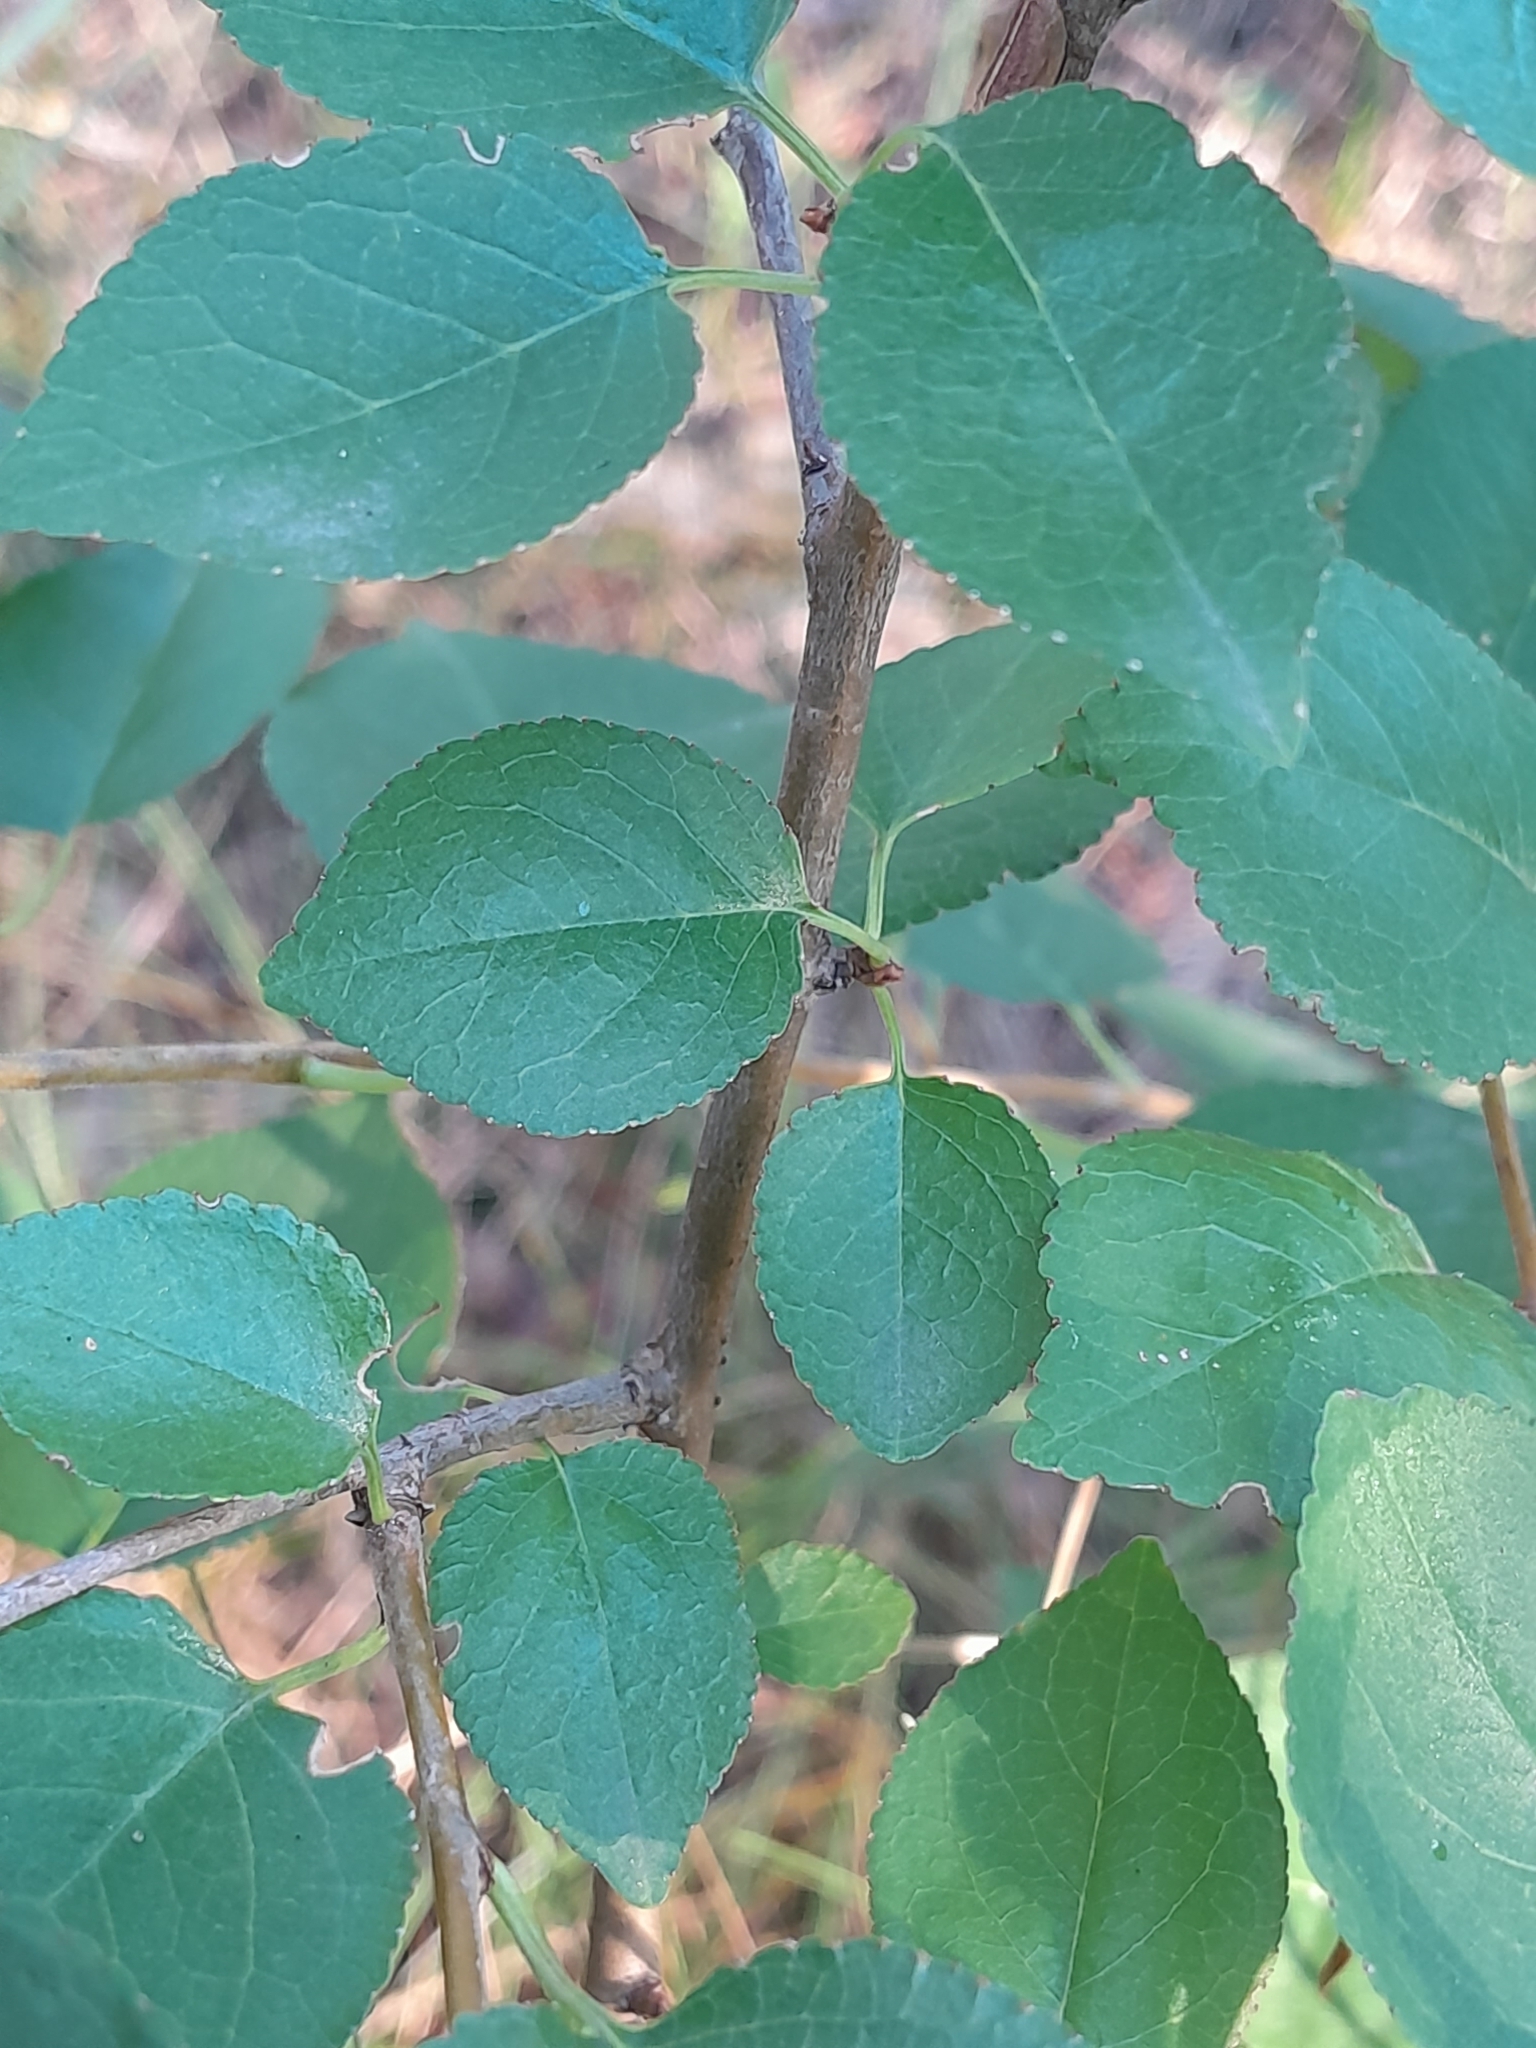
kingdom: Plantae
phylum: Tracheophyta
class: Magnoliopsida
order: Rosales
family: Rosaceae
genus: Prunus
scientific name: Prunus mahaleb
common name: Mahaleb cherry
